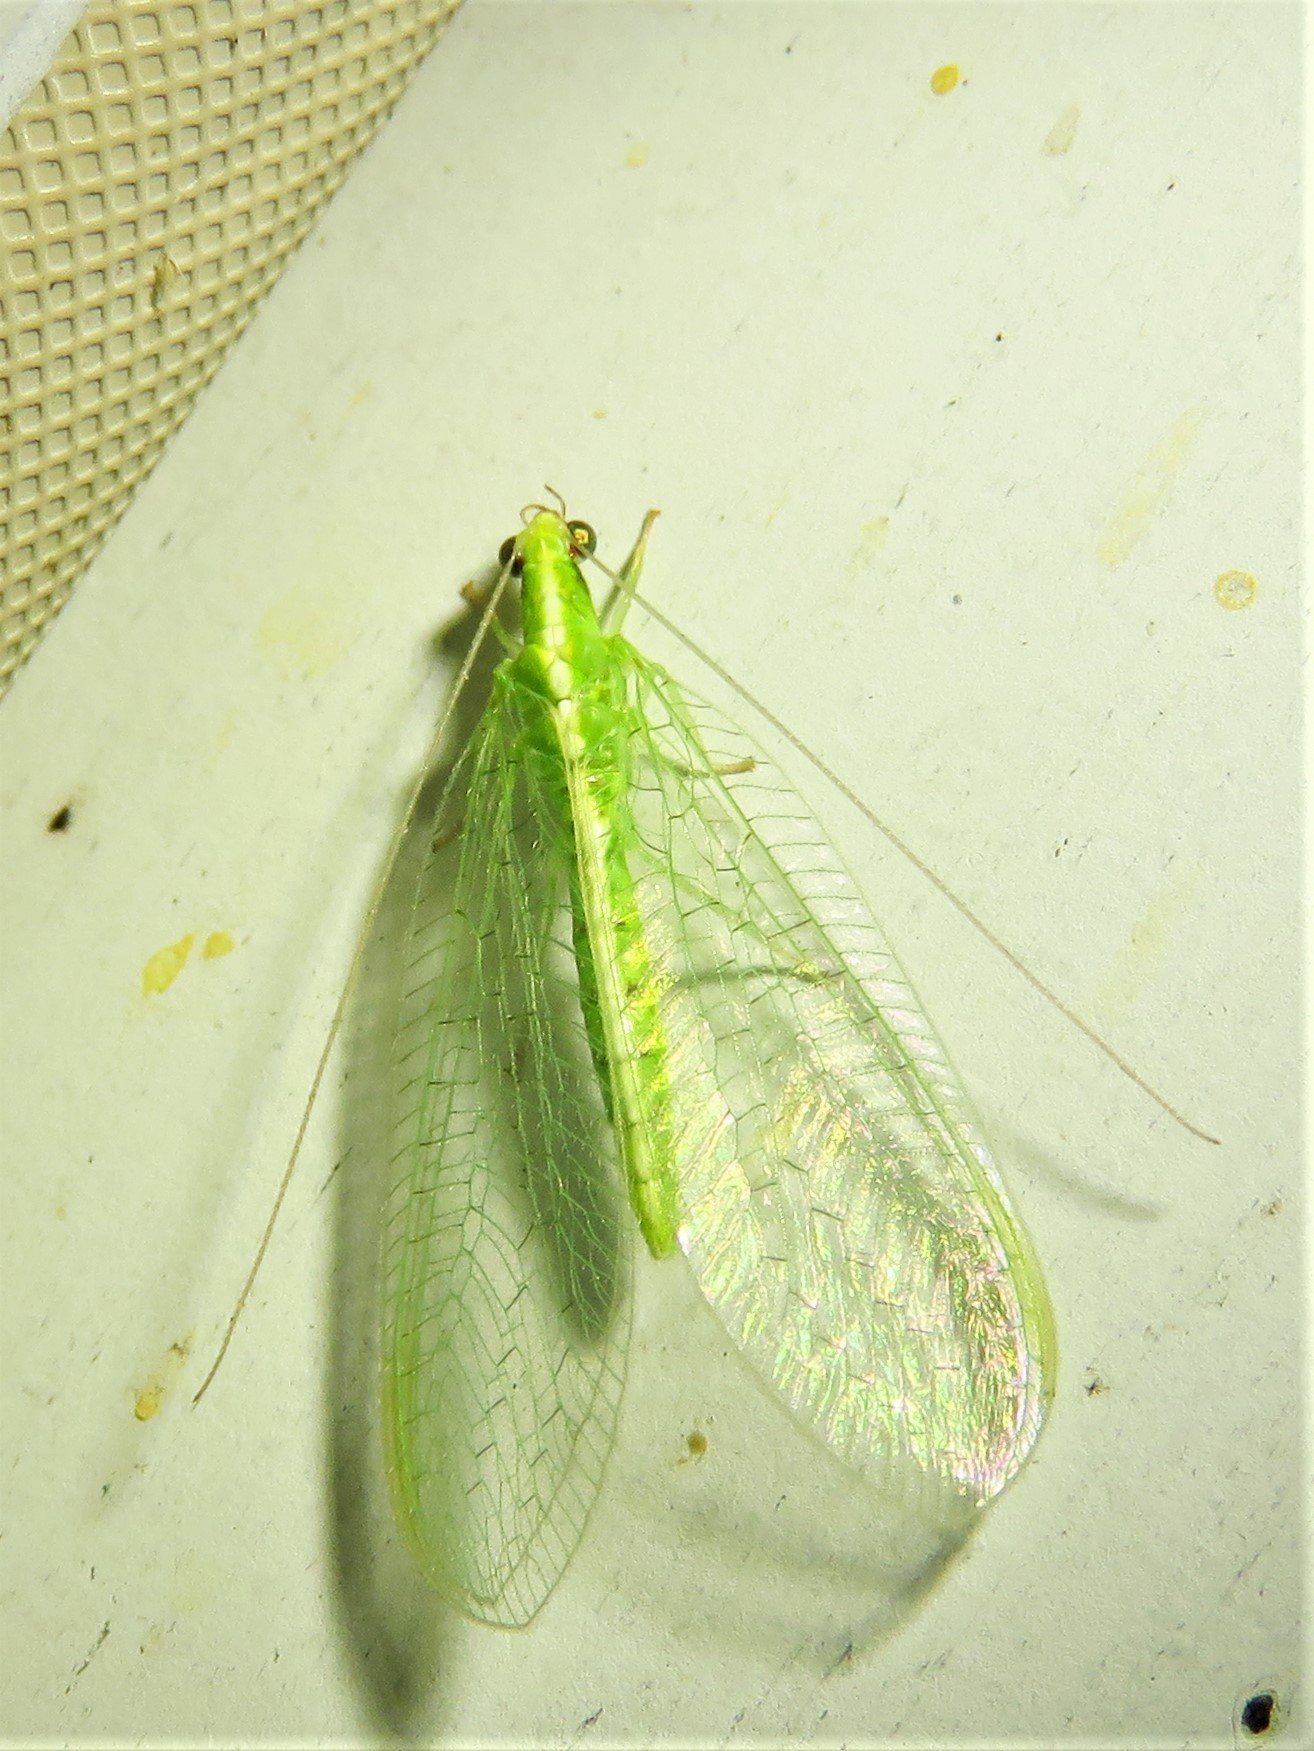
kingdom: Animalia
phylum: Arthropoda
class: Insecta
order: Neuroptera
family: Chrysopidae
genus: Chrysoperla
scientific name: Chrysoperla
